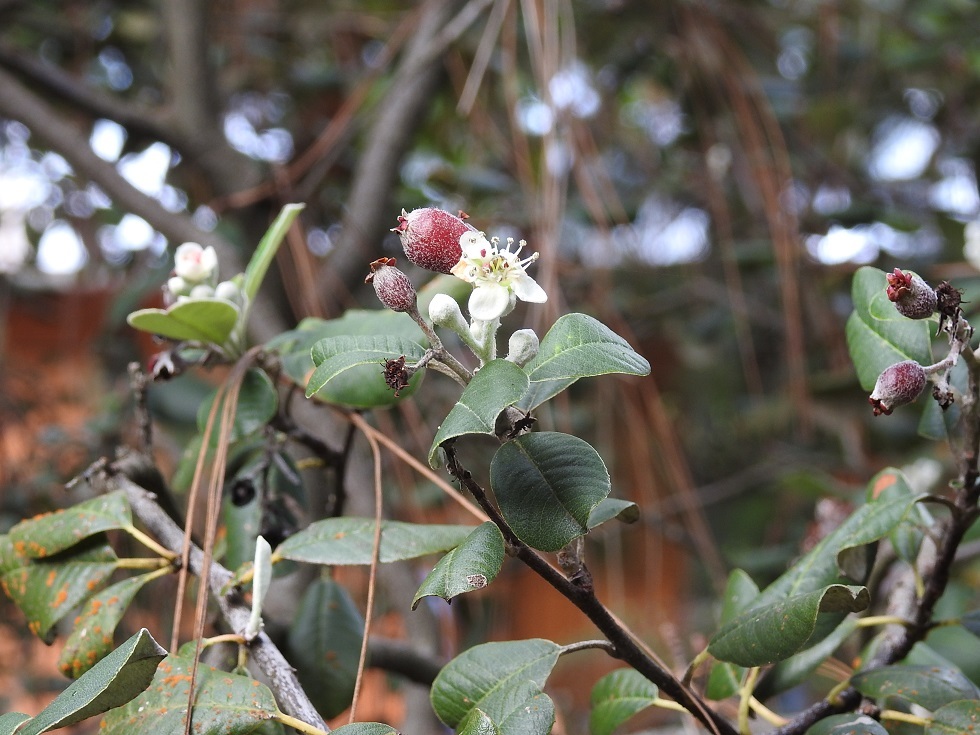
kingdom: Plantae
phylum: Tracheophyta
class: Magnoliopsida
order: Rosales
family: Rosaceae
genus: Malacomeles
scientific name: Malacomeles nervosa
